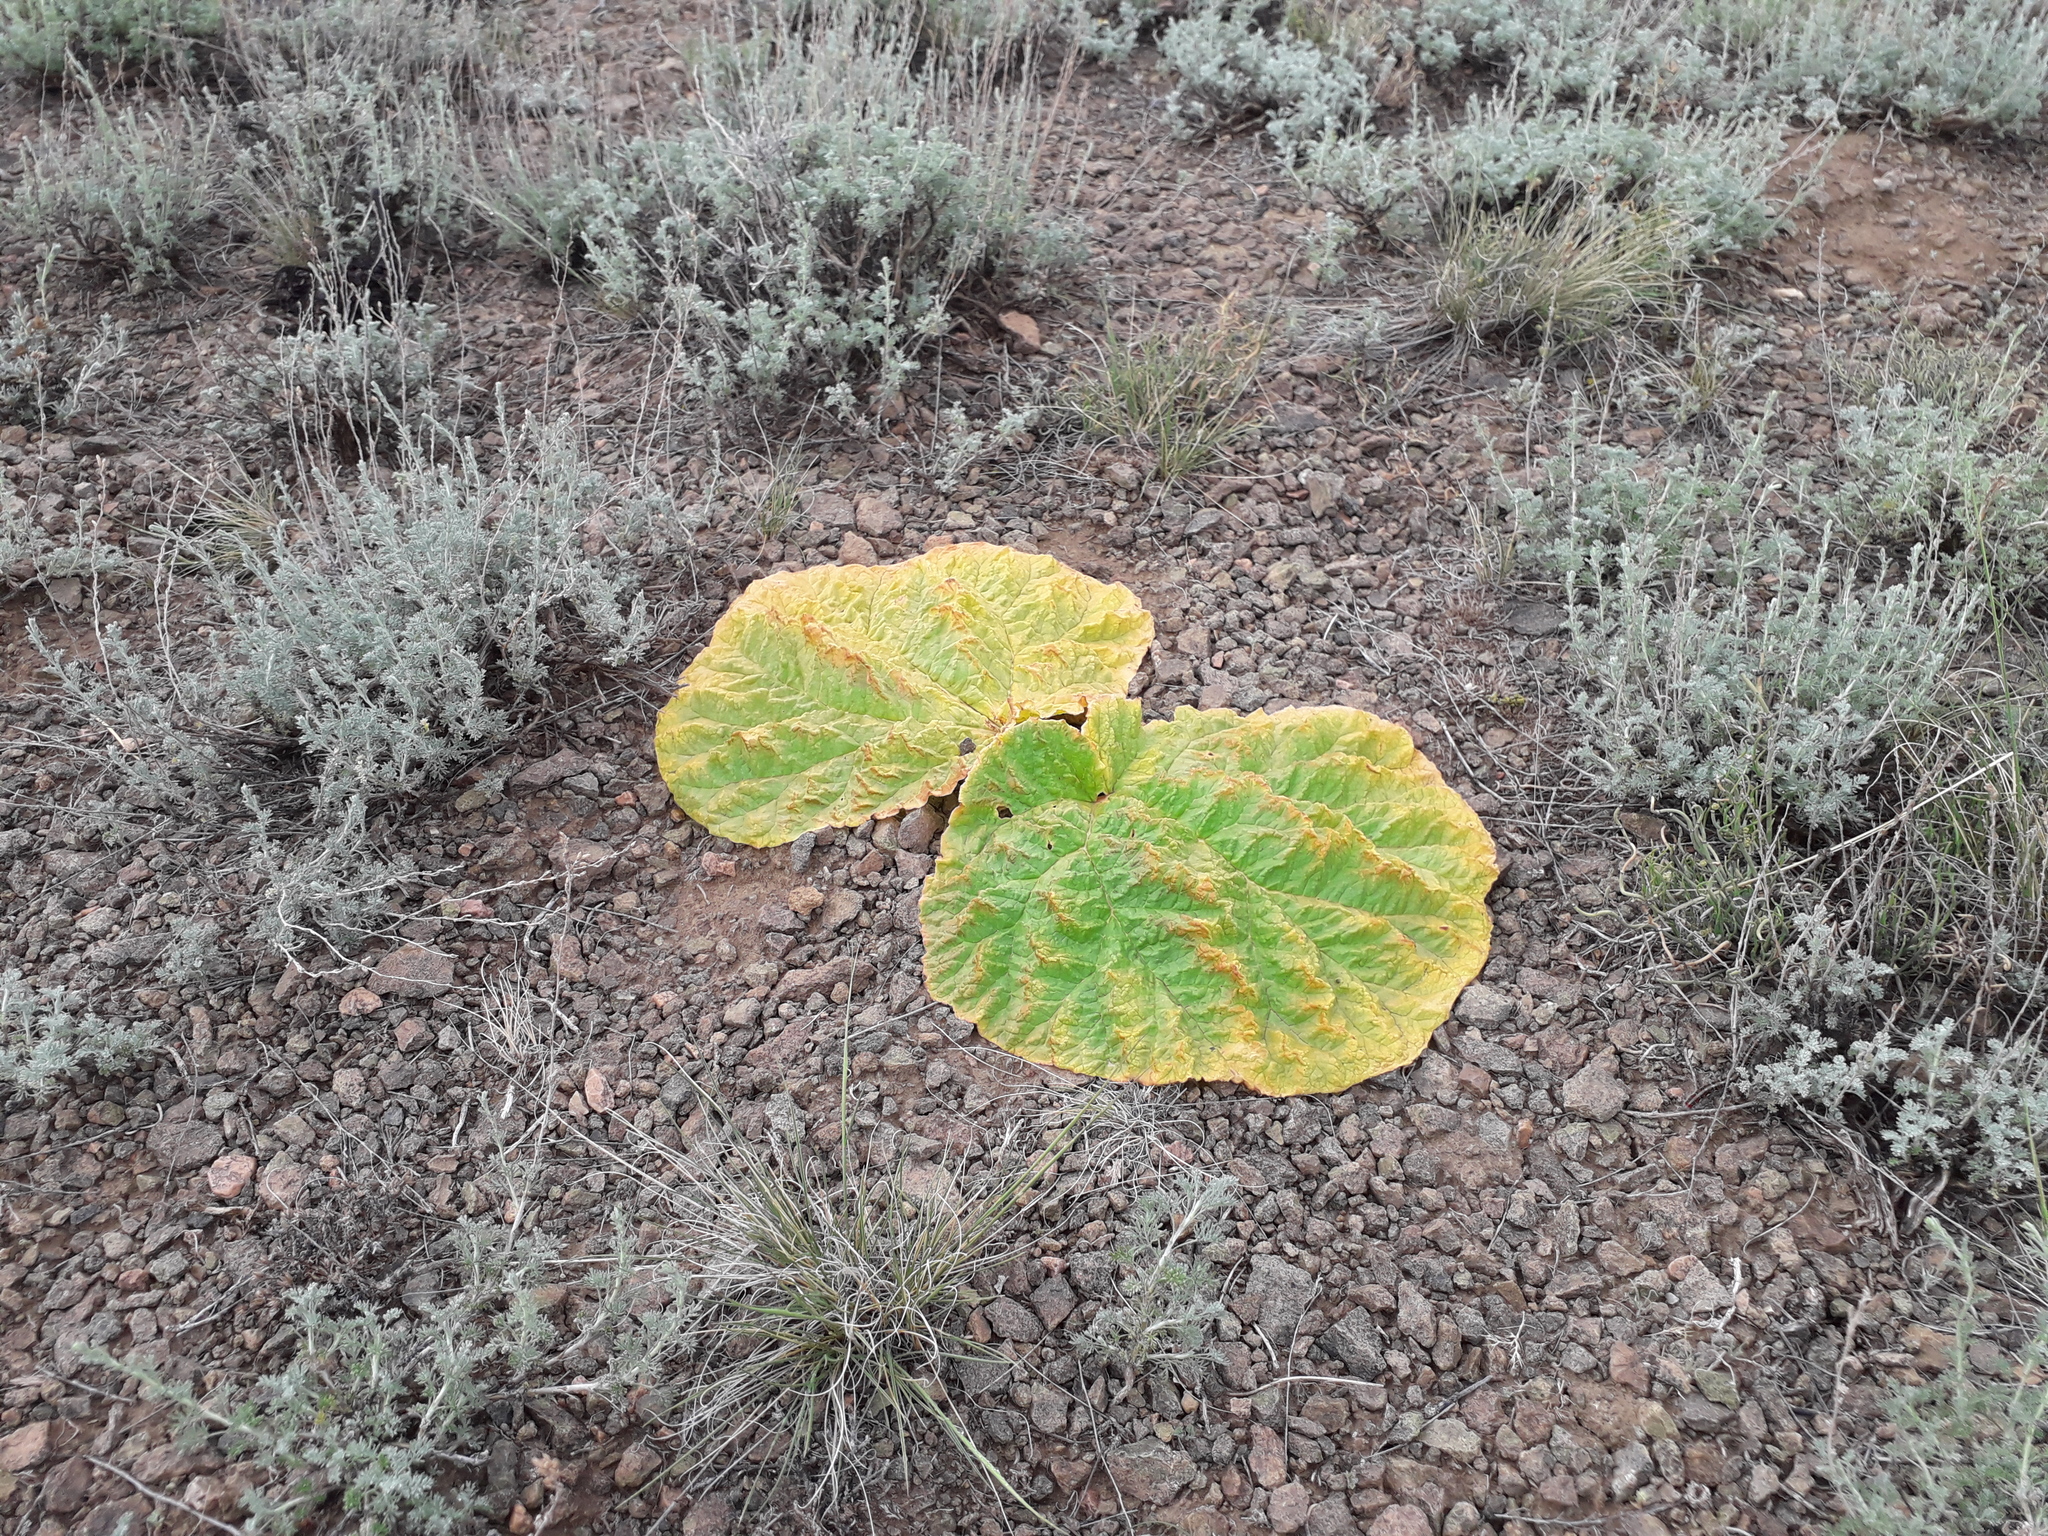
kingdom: Plantae
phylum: Tracheophyta
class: Magnoliopsida
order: Caryophyllales
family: Polygonaceae
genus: Rheum
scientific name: Rheum tataricum
